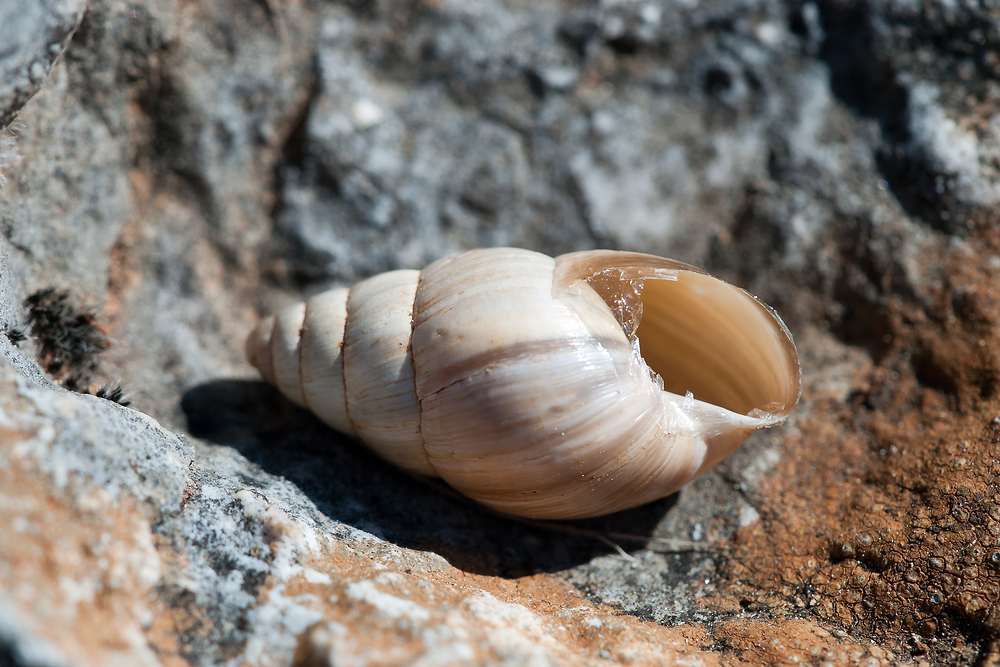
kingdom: Animalia
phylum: Mollusca
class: Gastropoda
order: Stylommatophora
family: Enidae
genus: Zebrina
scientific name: Zebrina detrita
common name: Large bulin
